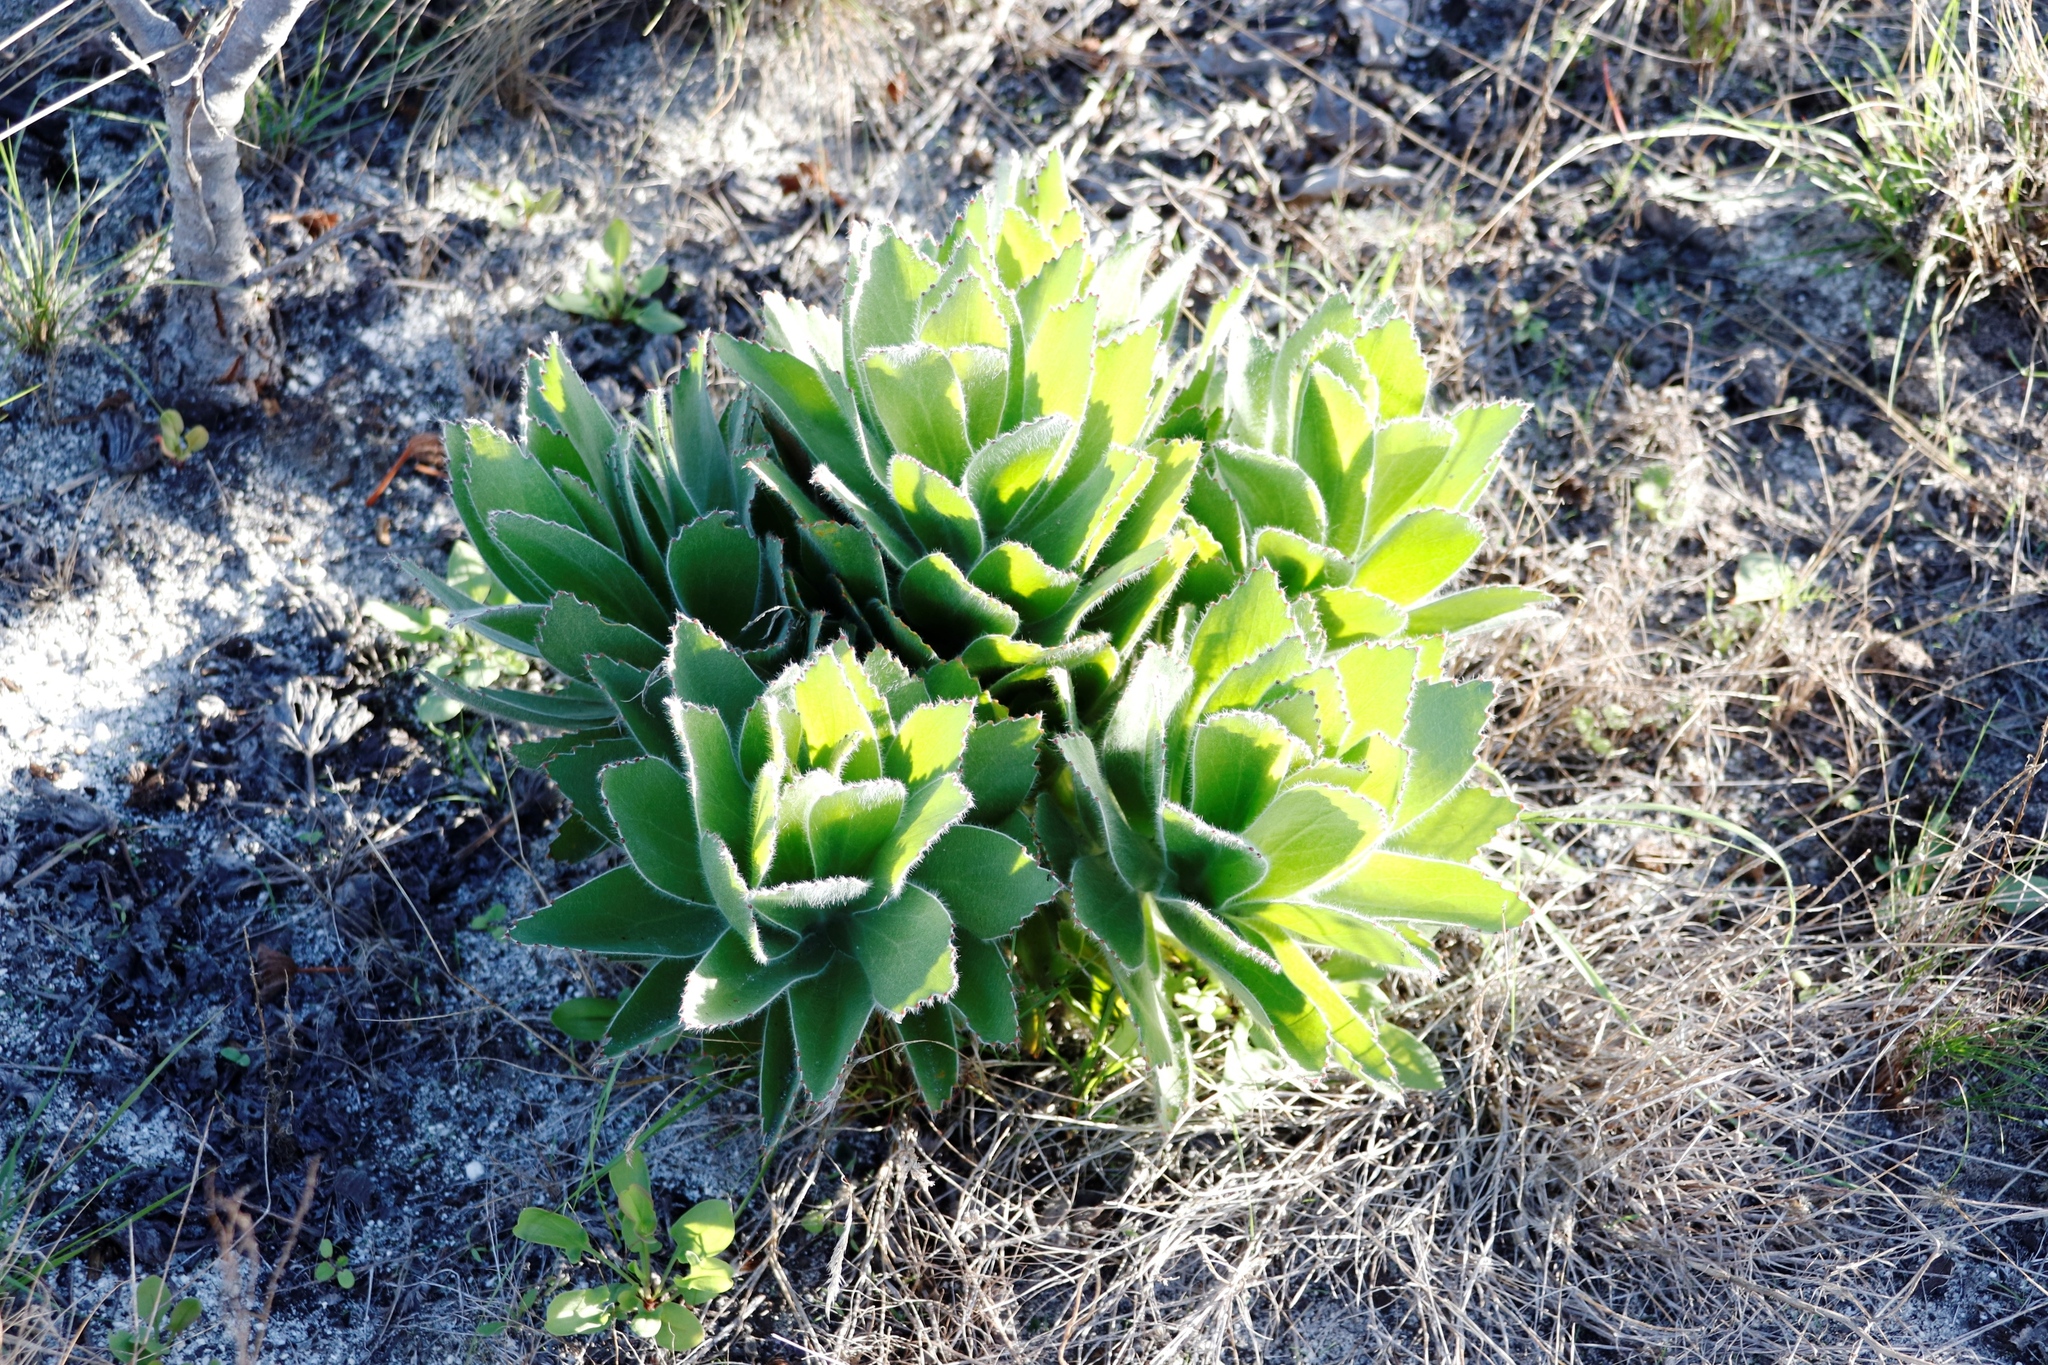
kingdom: Plantae
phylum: Tracheophyta
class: Magnoliopsida
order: Proteales
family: Proteaceae
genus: Leucospermum
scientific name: Leucospermum conocarpodendron
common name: Tree pincushion
